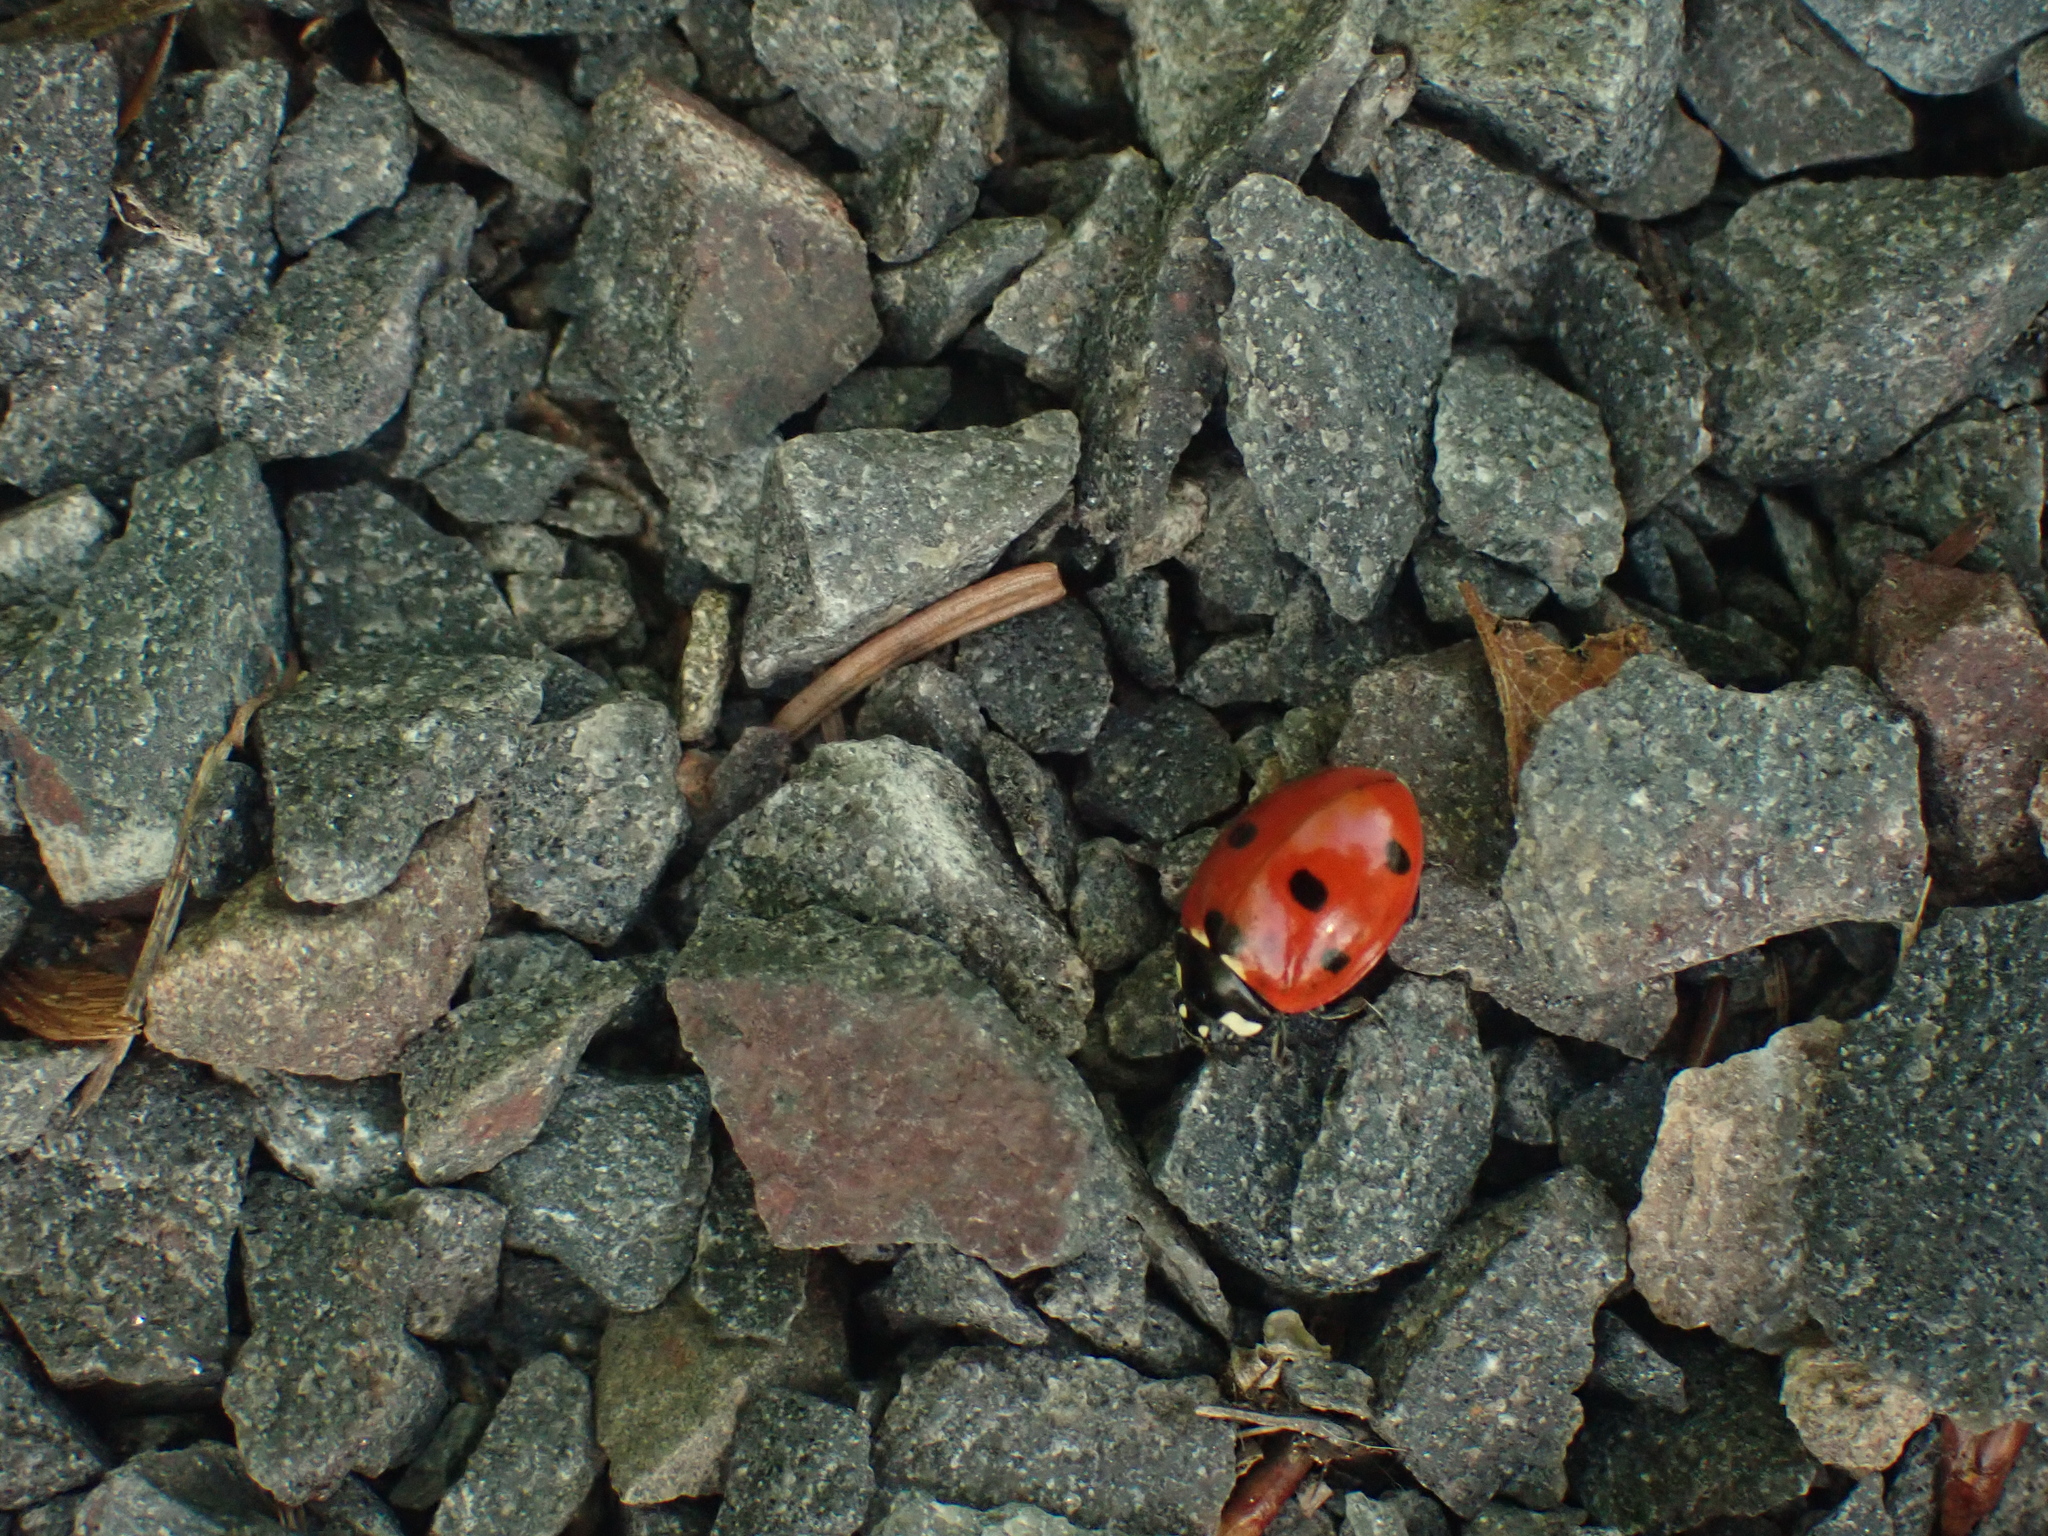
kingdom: Animalia
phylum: Arthropoda
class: Insecta
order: Coleoptera
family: Coccinellidae
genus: Coccinella
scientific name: Coccinella septempunctata
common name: Sevenspotted lady beetle
